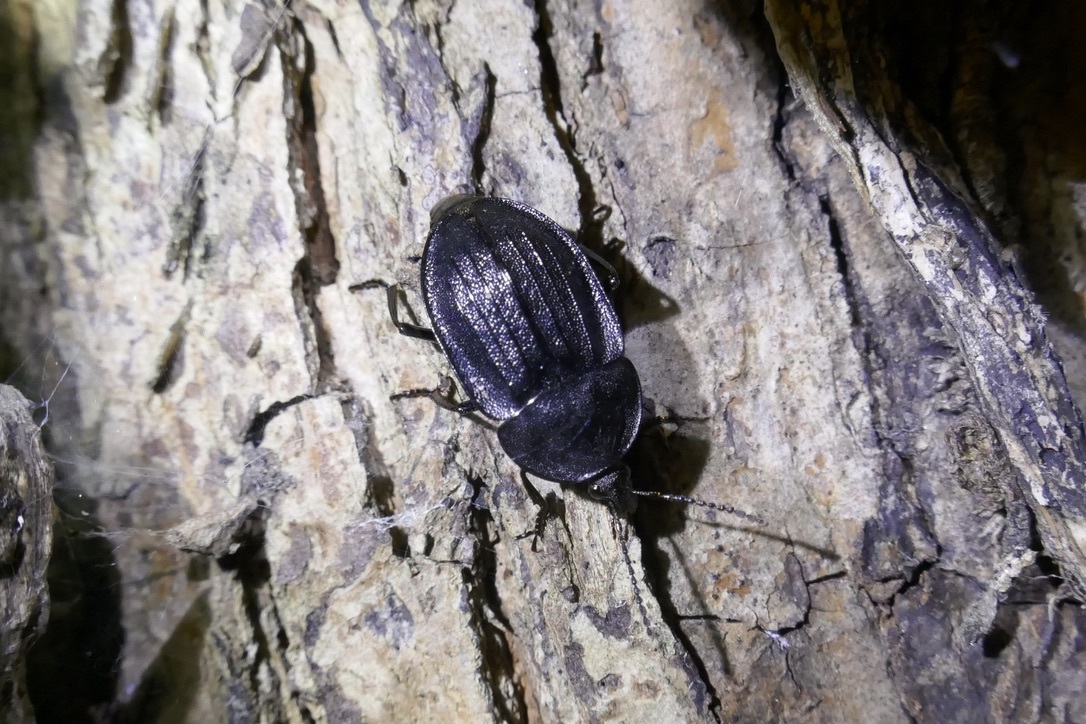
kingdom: Animalia
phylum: Arthropoda
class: Insecta
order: Coleoptera
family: Staphylinidae
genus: Silpha
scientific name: Silpha atrata
